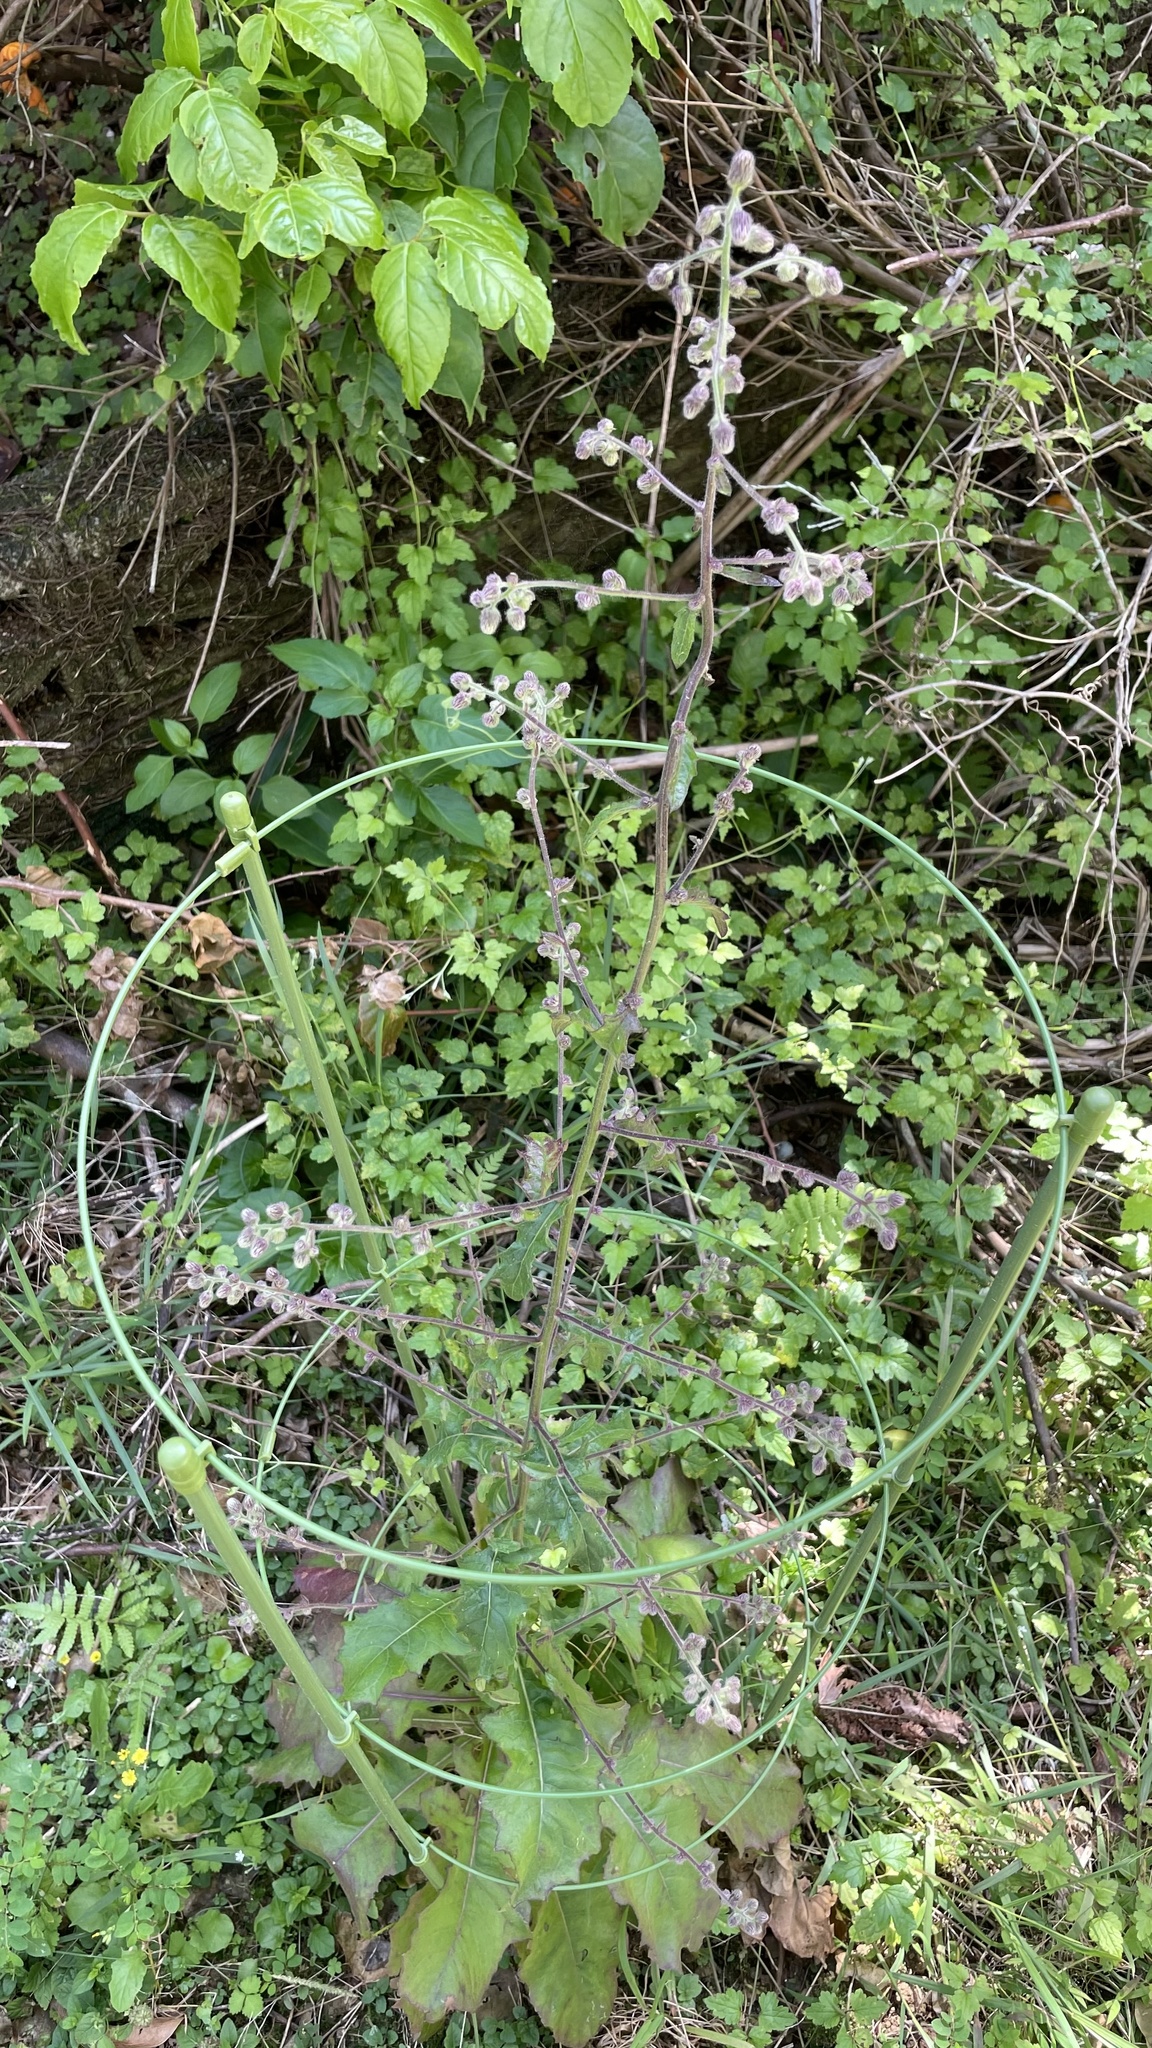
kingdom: Plantae
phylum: Tracheophyta
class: Magnoliopsida
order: Asterales
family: Asteraceae
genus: Blumea
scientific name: Blumea sinuata
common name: Cutleaf false oxtongue
